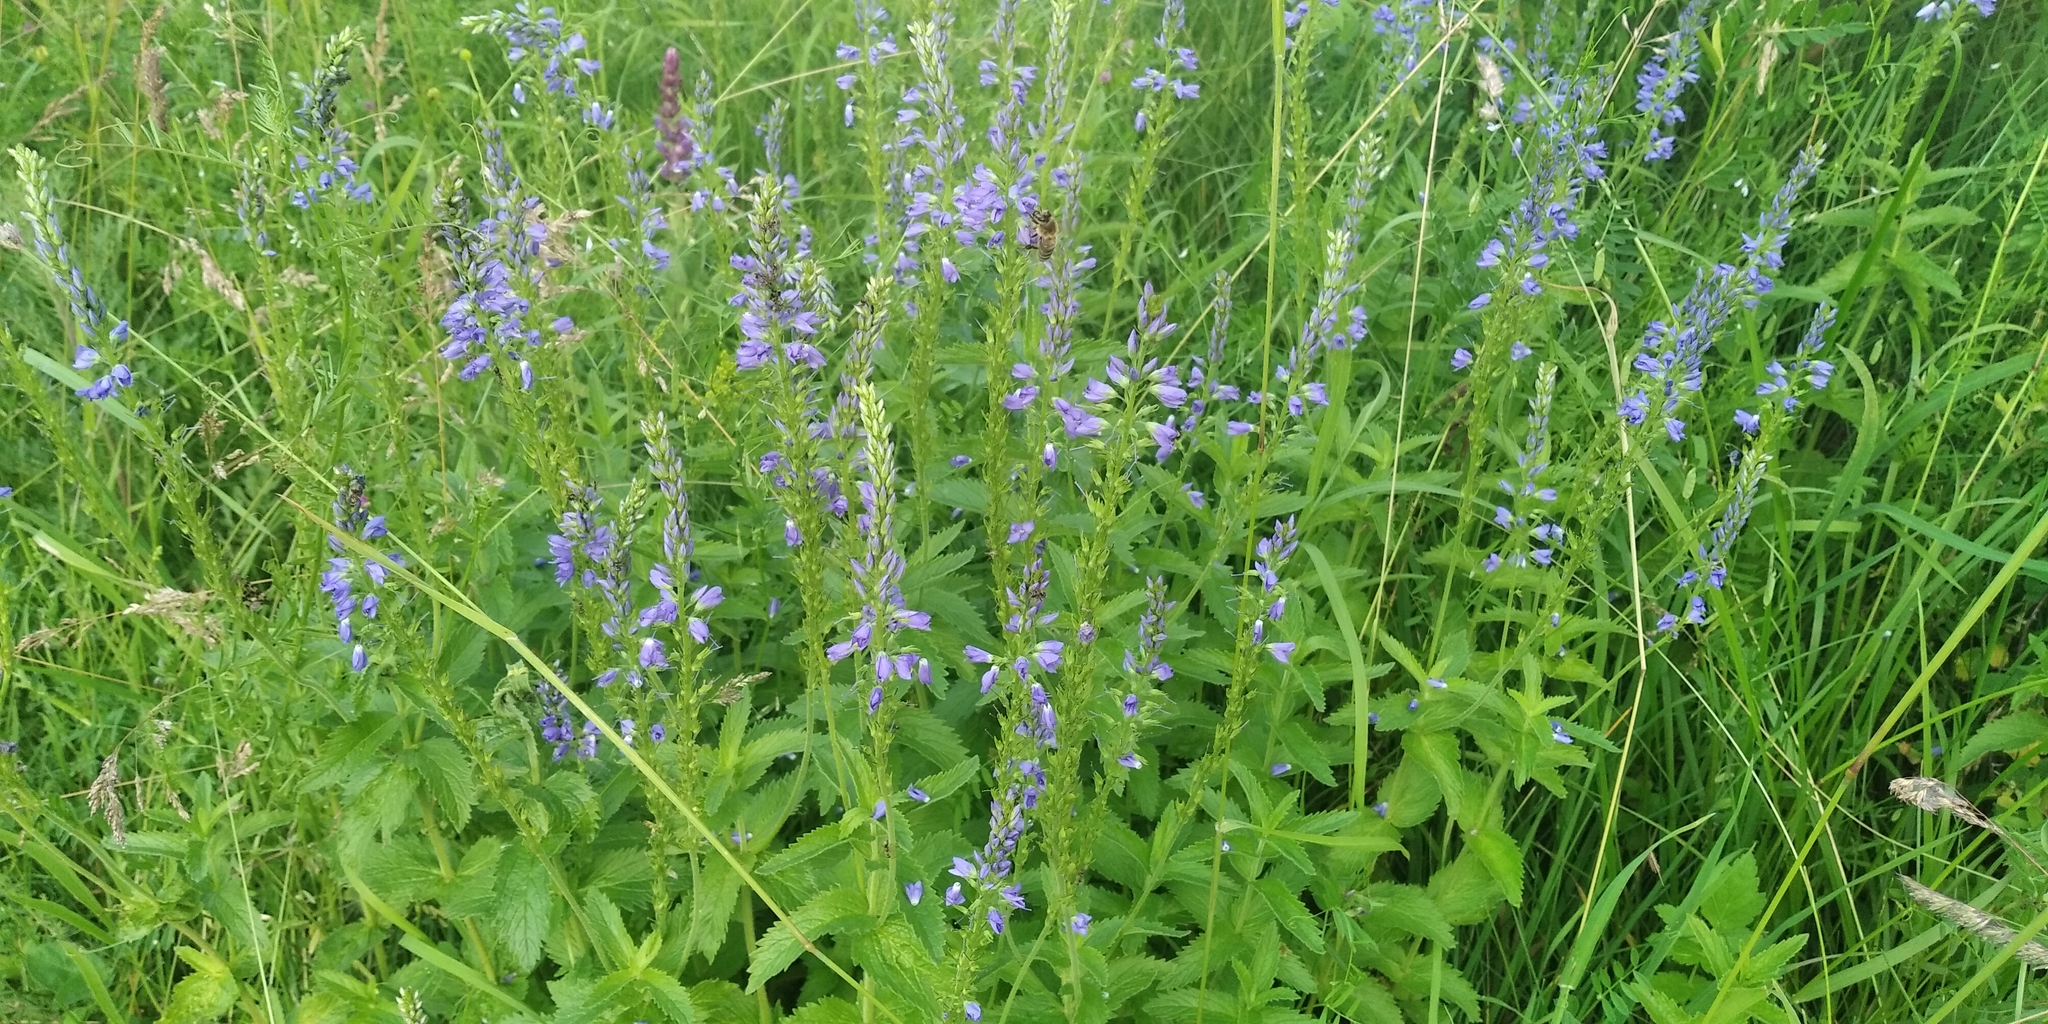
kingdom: Plantae
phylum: Tracheophyta
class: Magnoliopsida
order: Lamiales
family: Plantaginaceae
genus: Veronica
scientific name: Veronica teucrium
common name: Large speedwell
